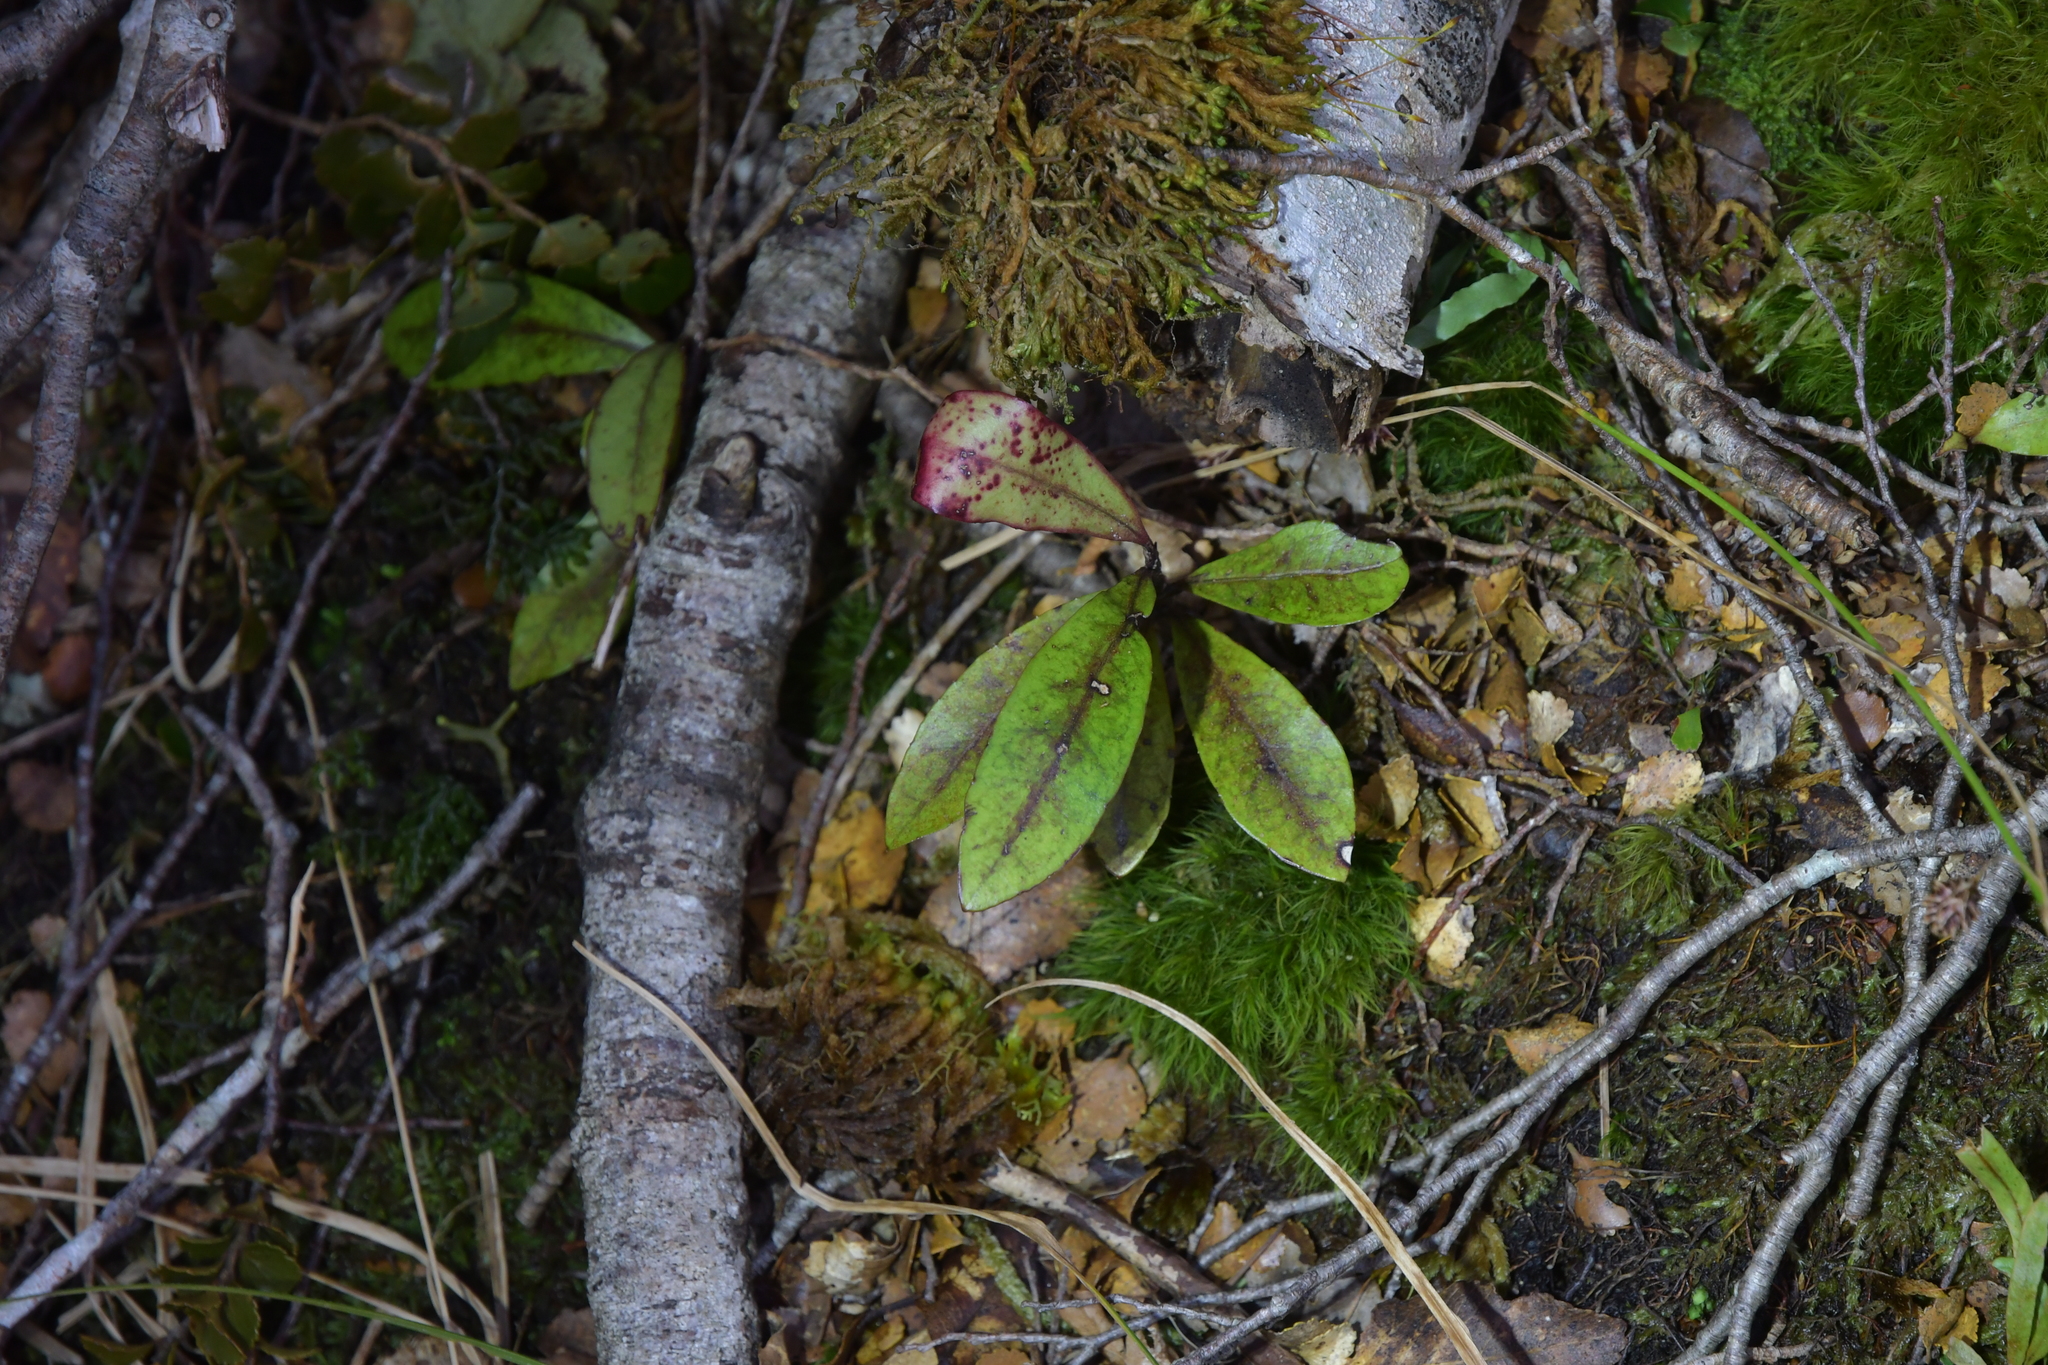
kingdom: Plantae
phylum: Tracheophyta
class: Magnoliopsida
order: Canellales
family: Winteraceae
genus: Pseudowintera
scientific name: Pseudowintera colorata
